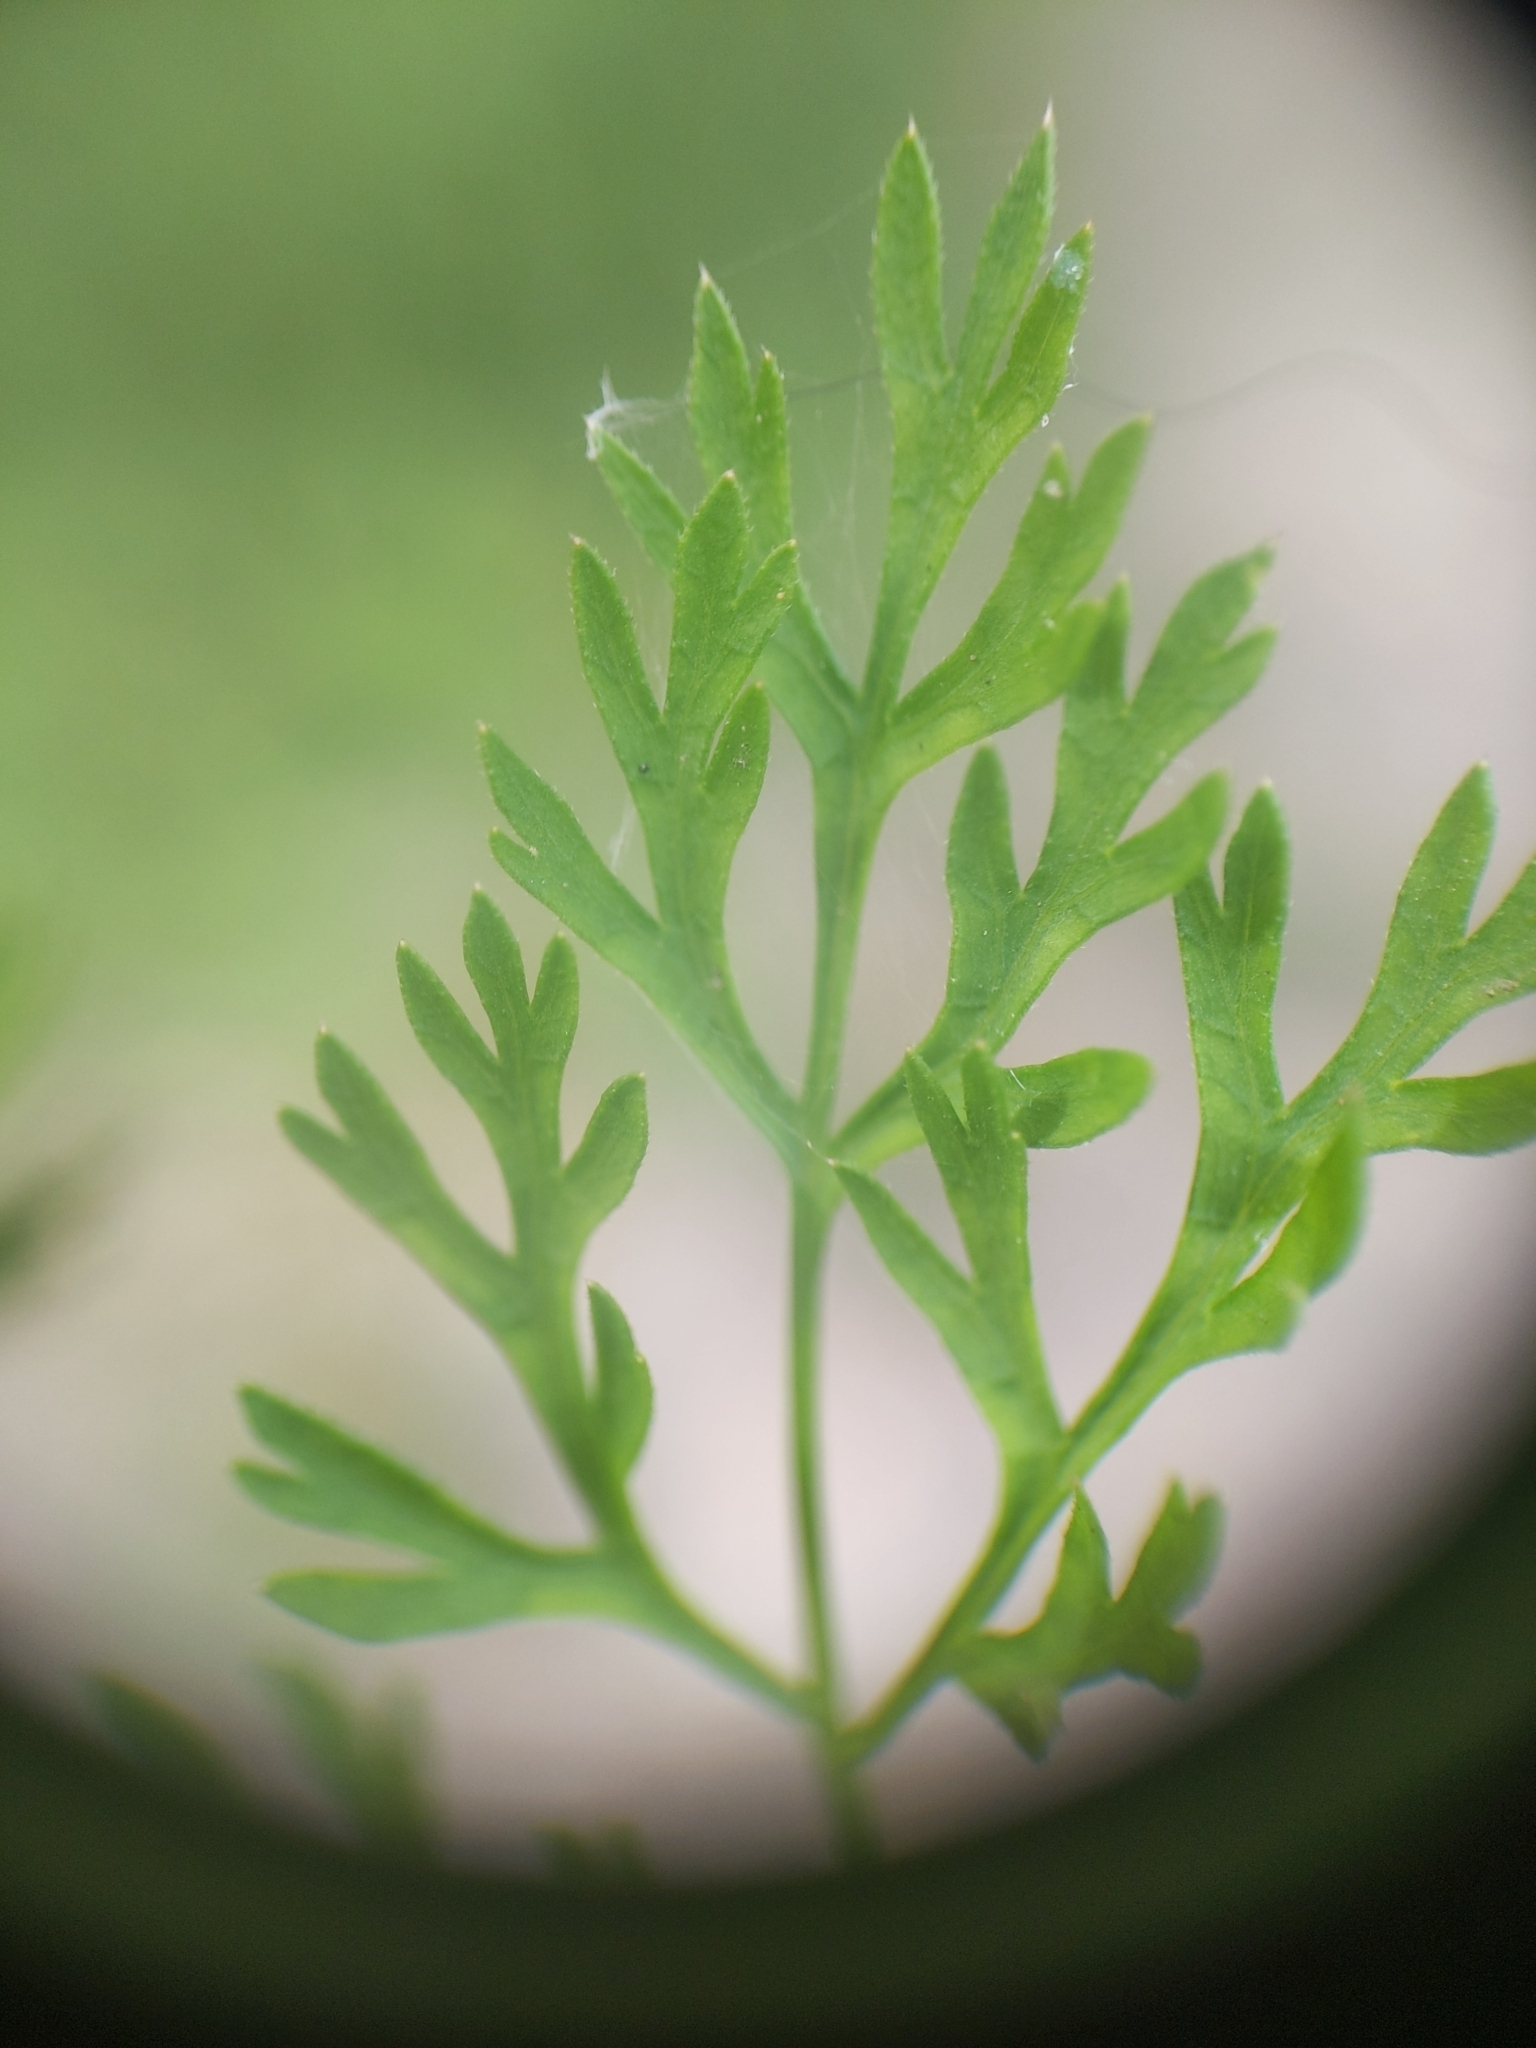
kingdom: Plantae
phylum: Tracheophyta
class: Magnoliopsida
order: Apiales
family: Apiaceae
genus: Daucus
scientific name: Daucus carota
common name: Wild carrot
